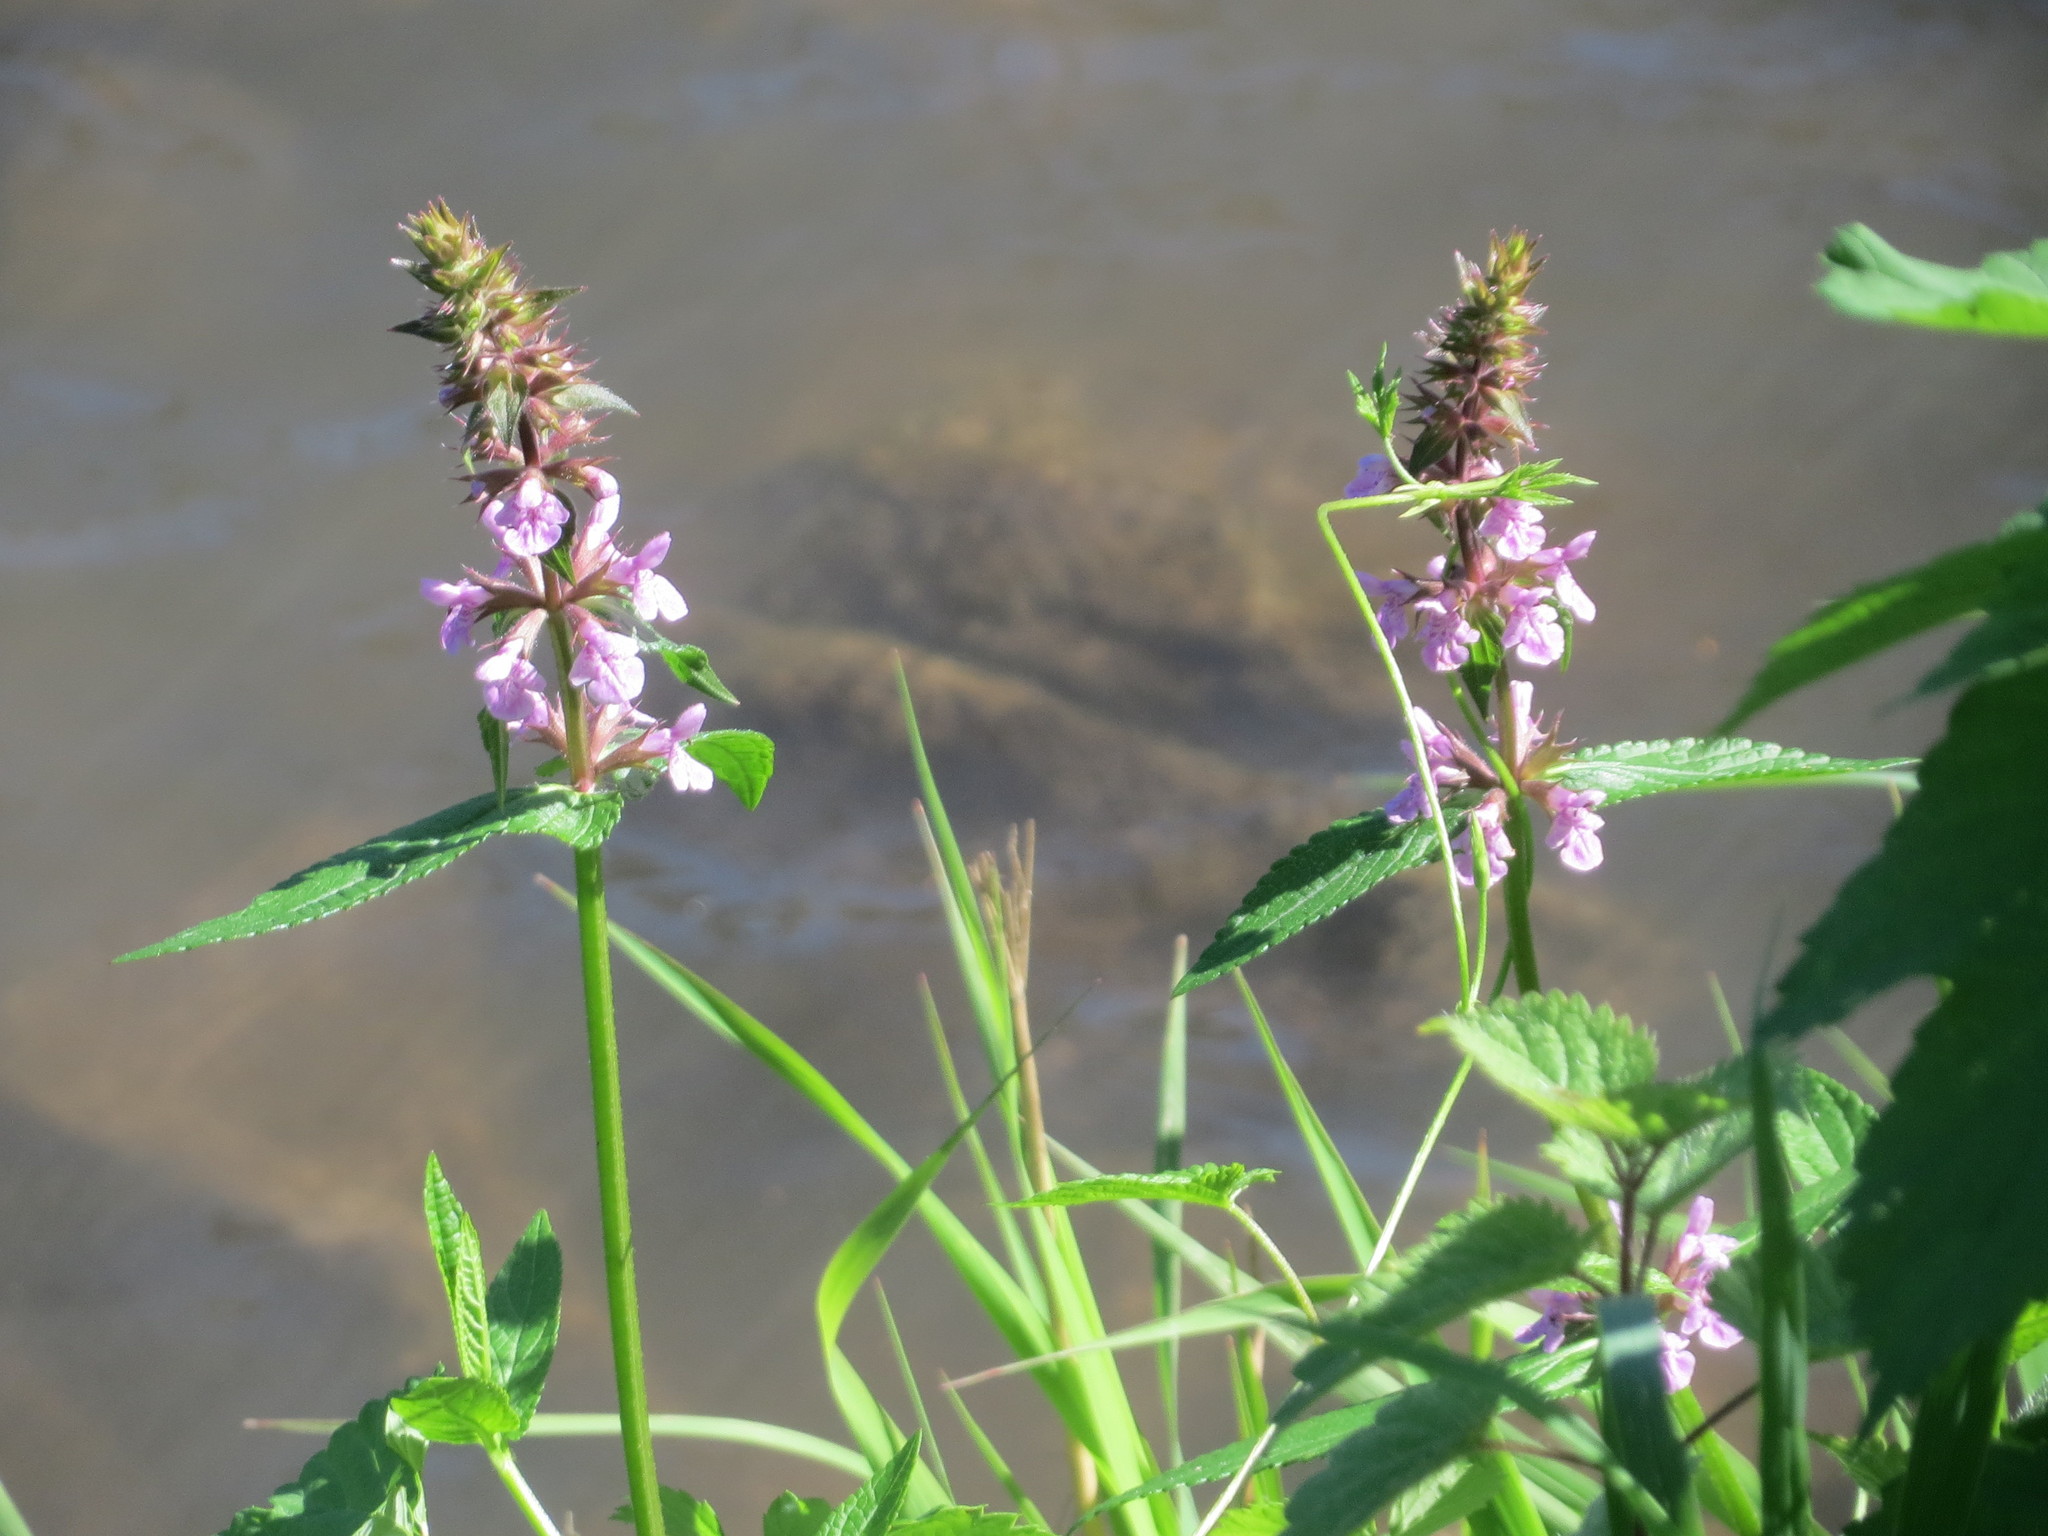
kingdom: Plantae
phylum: Tracheophyta
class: Magnoliopsida
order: Lamiales
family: Lamiaceae
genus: Stachys
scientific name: Stachys palustris
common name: Marsh woundwort
